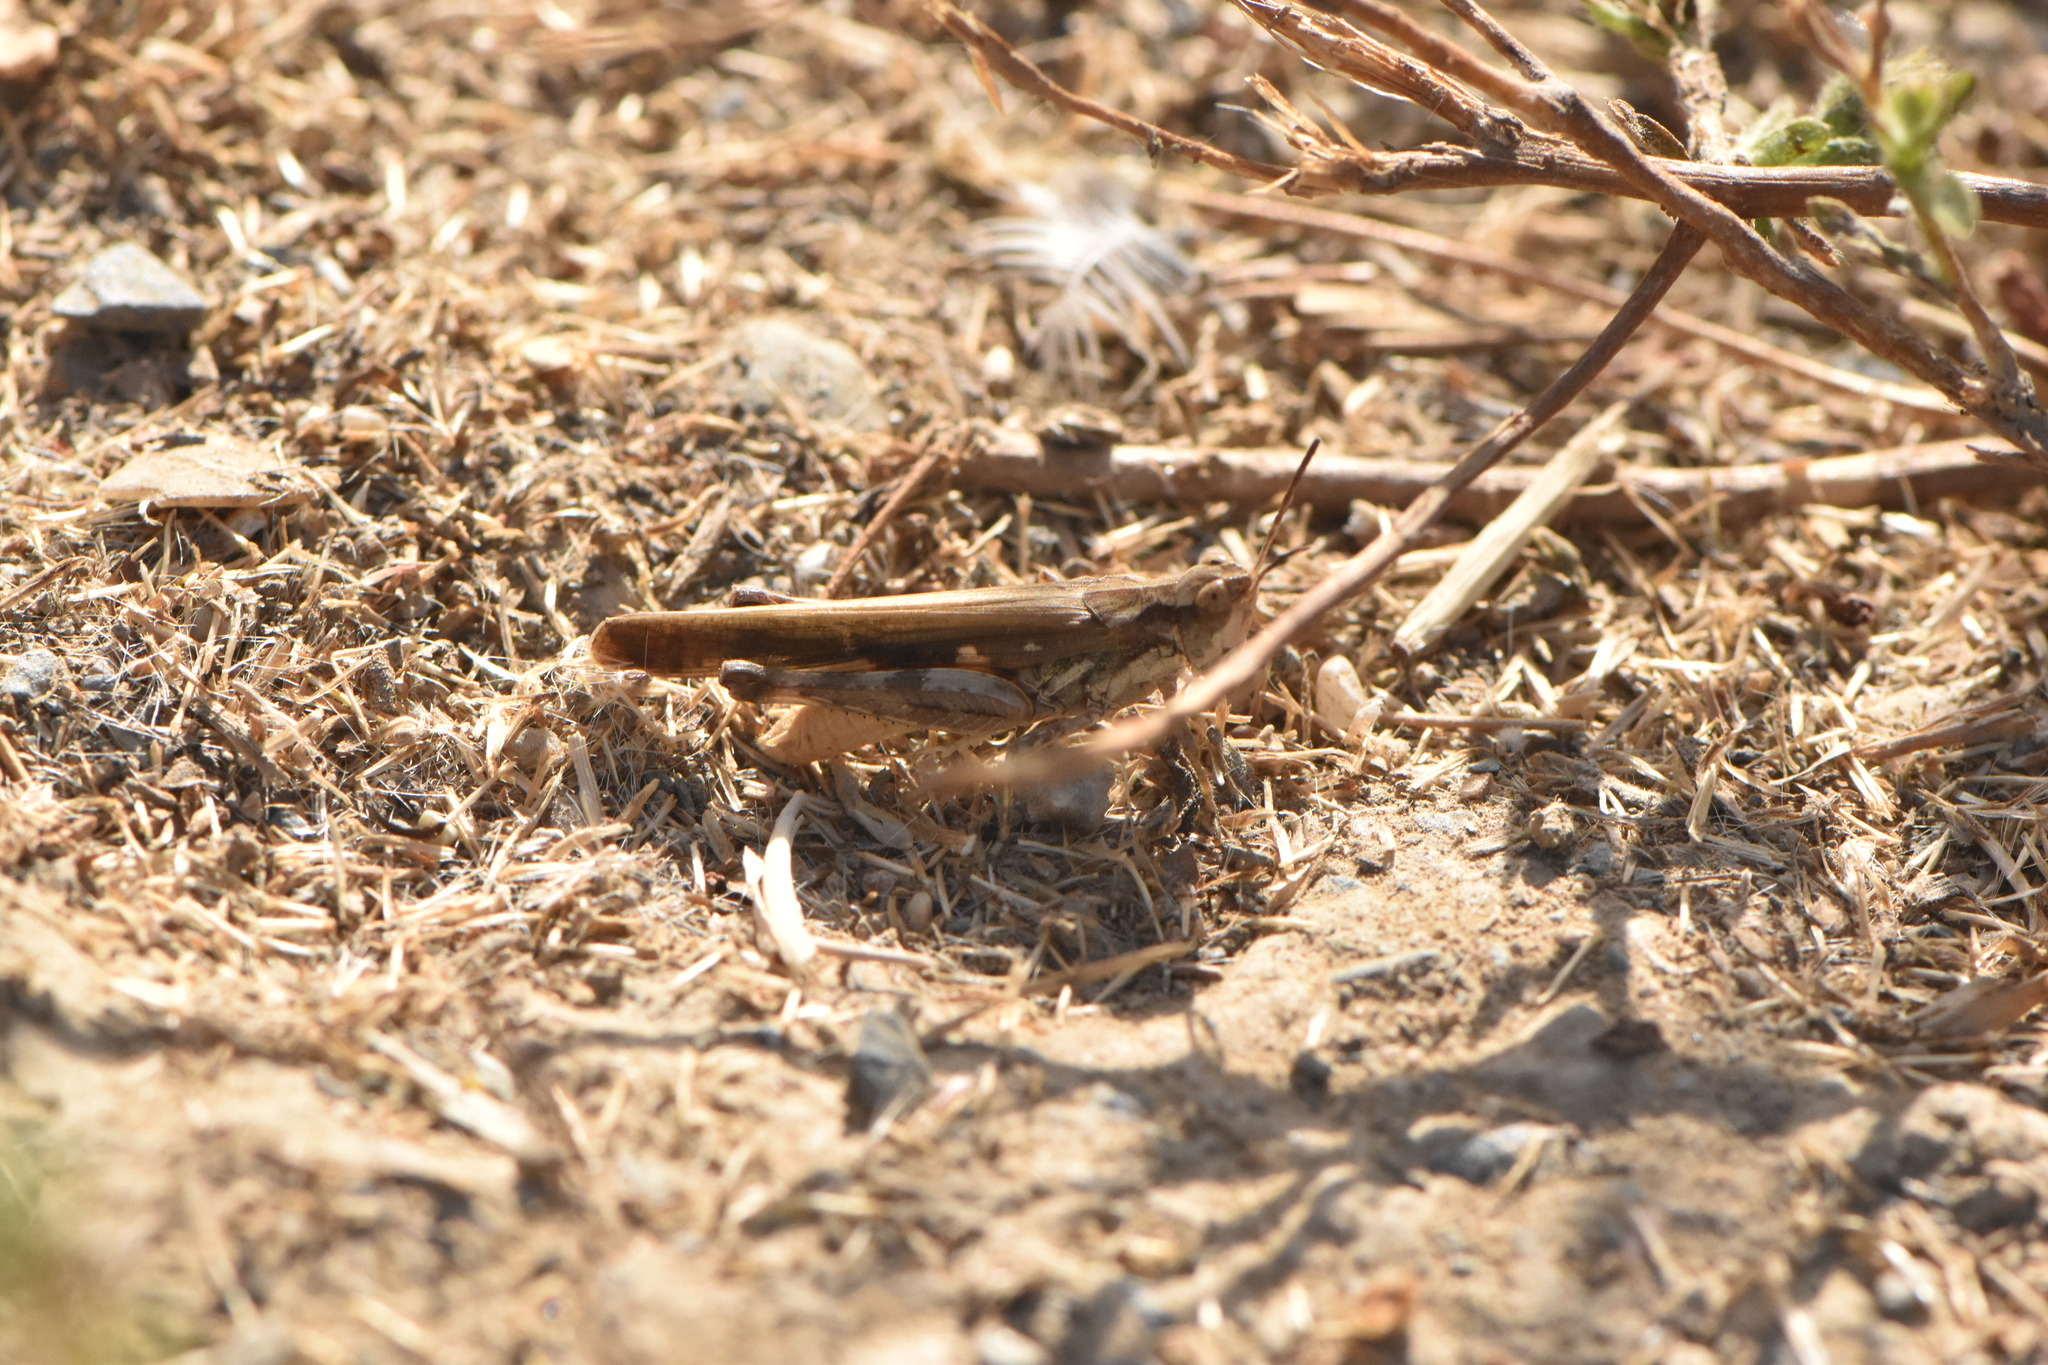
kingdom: Animalia
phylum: Arthropoda
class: Insecta
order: Orthoptera
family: Acrididae
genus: Aiolopus
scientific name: Aiolopus puissanti
